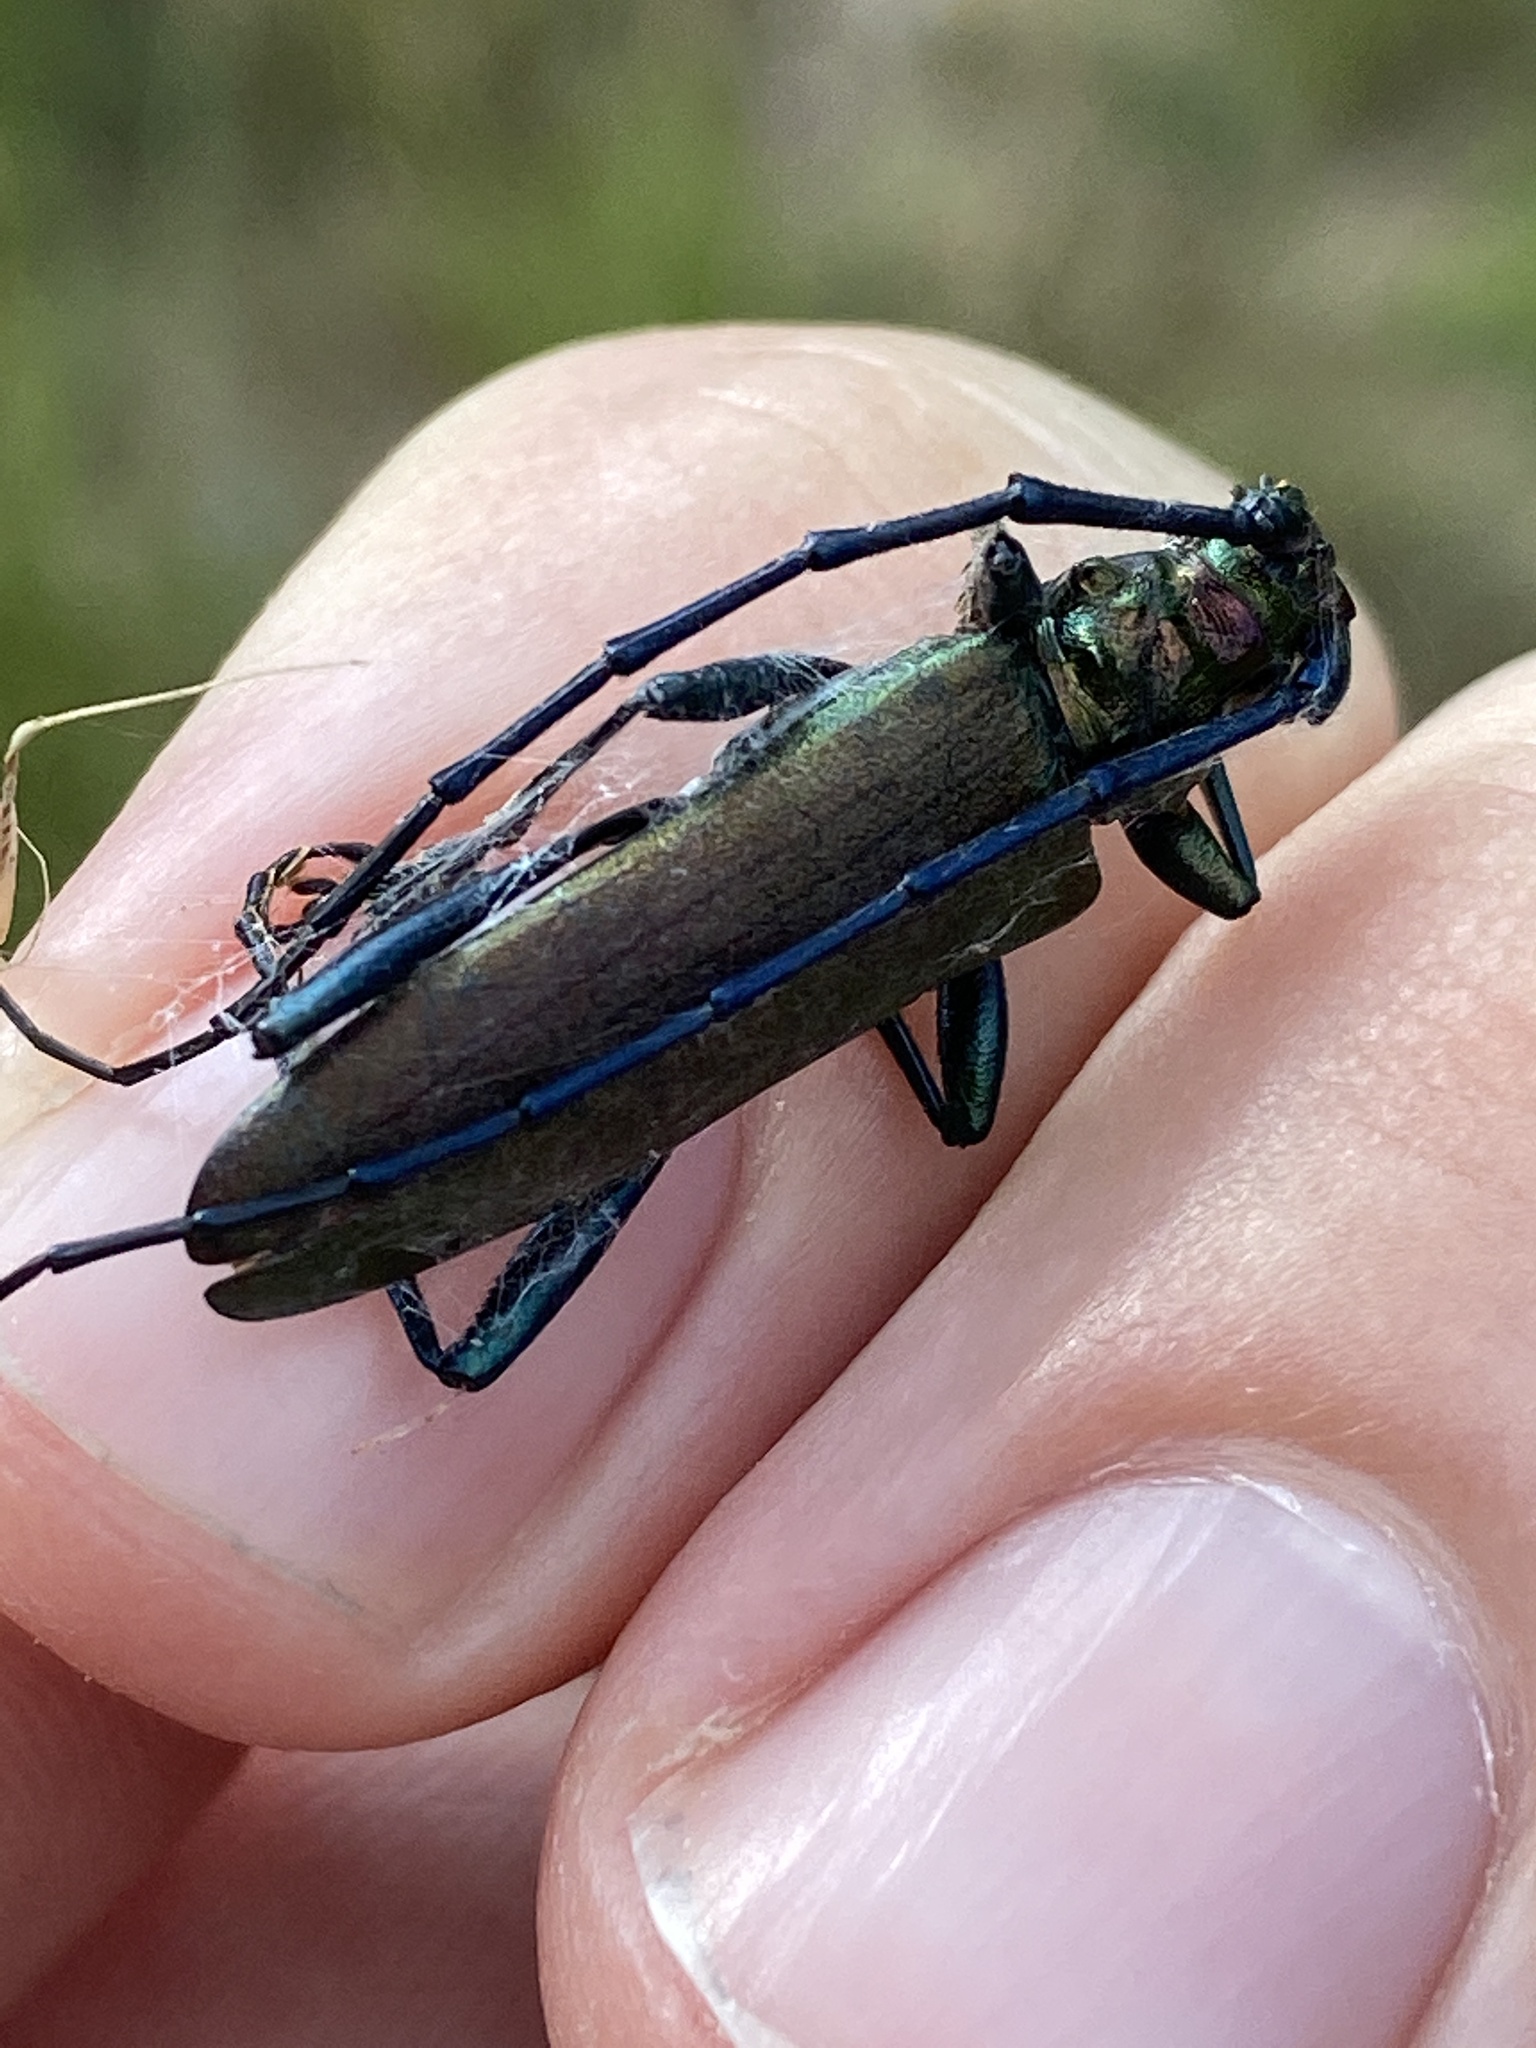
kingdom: Animalia
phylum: Arthropoda
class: Insecta
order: Coleoptera
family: Cerambycidae
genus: Aromia
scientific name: Aromia moschata
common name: Musk beetle
